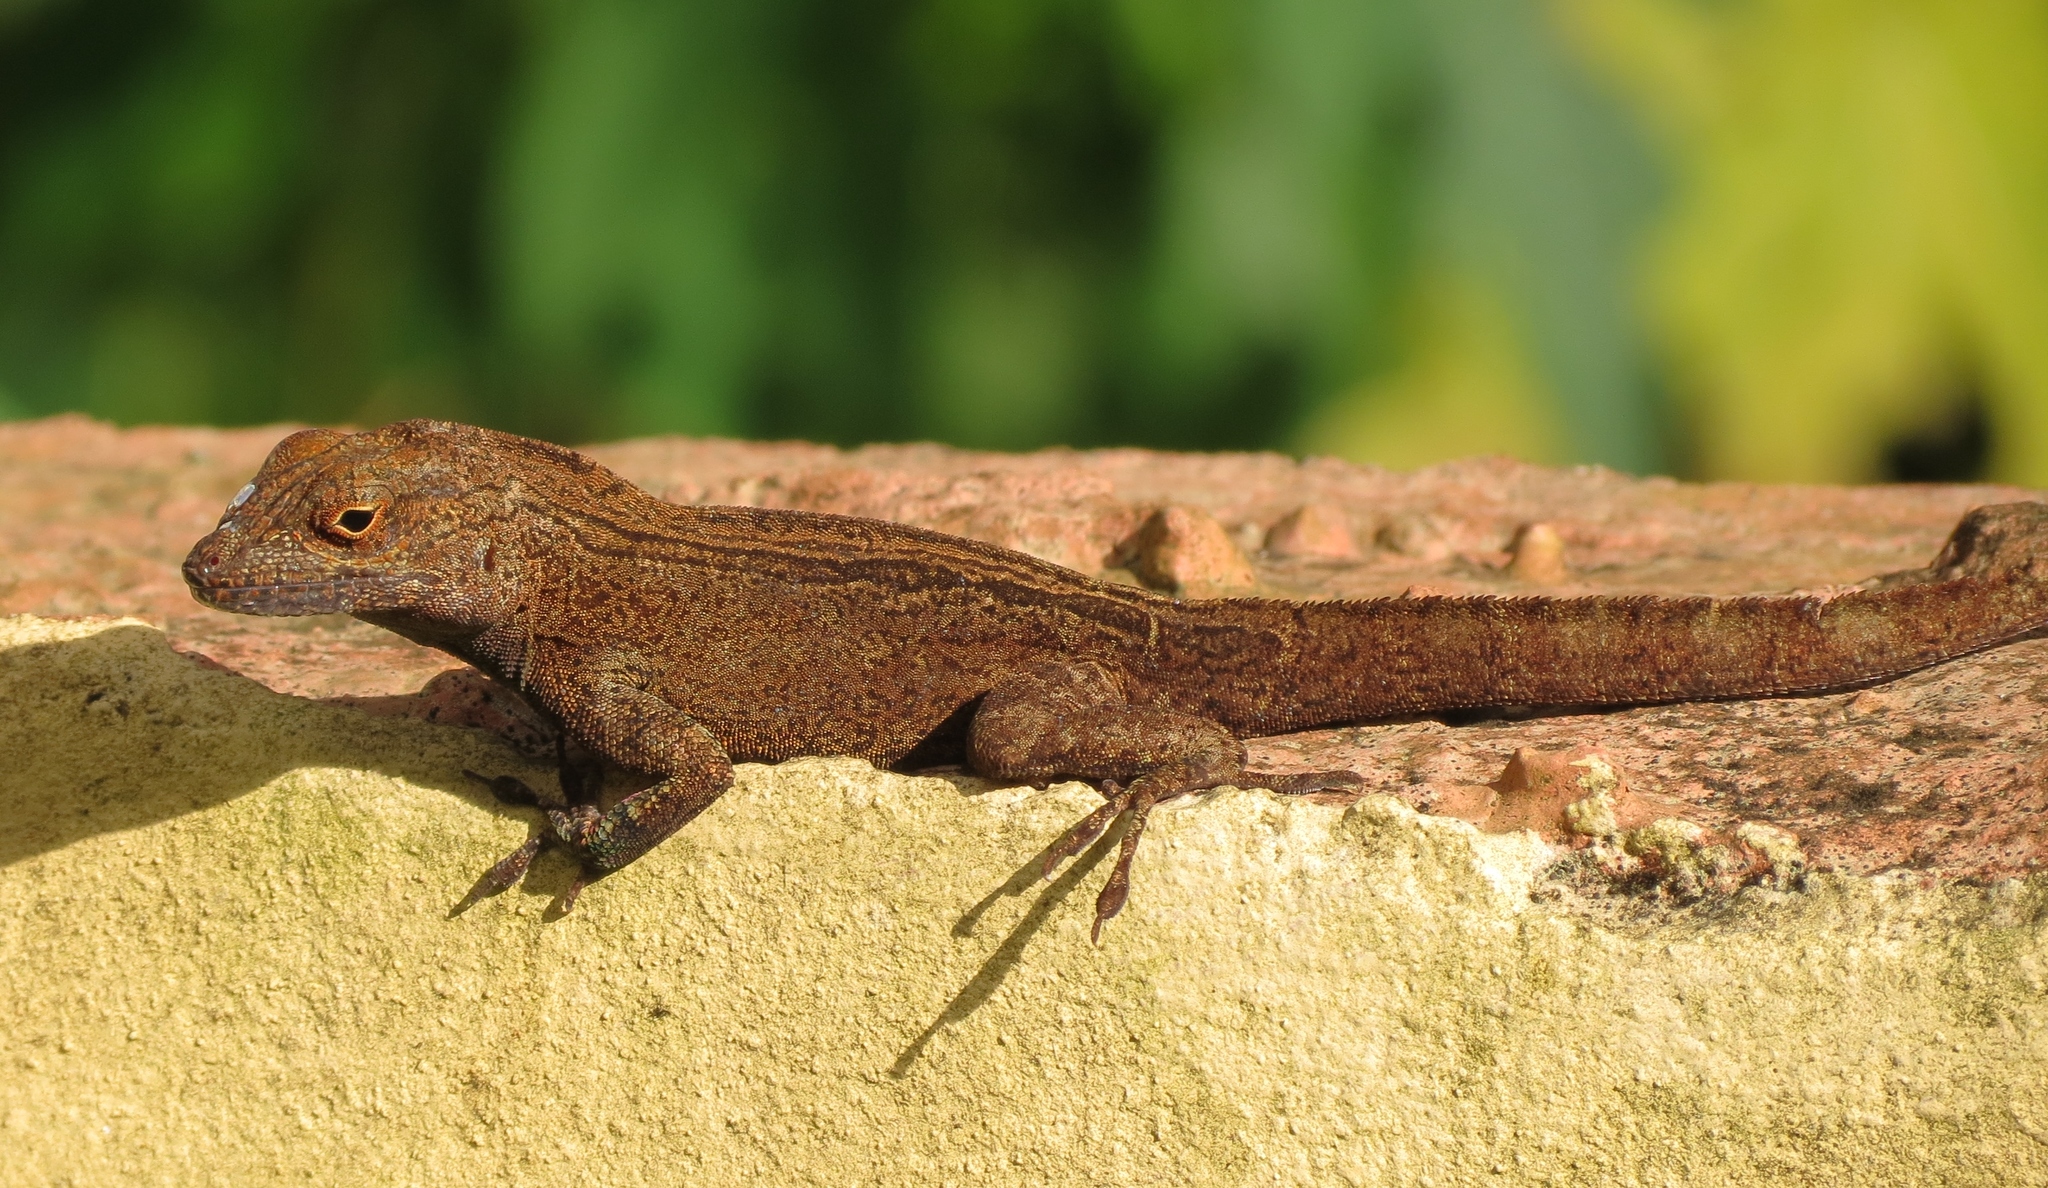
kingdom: Animalia
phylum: Chordata
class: Squamata
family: Dactyloidae
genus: Anolis
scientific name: Anolis cristatellus
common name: Crested anole
